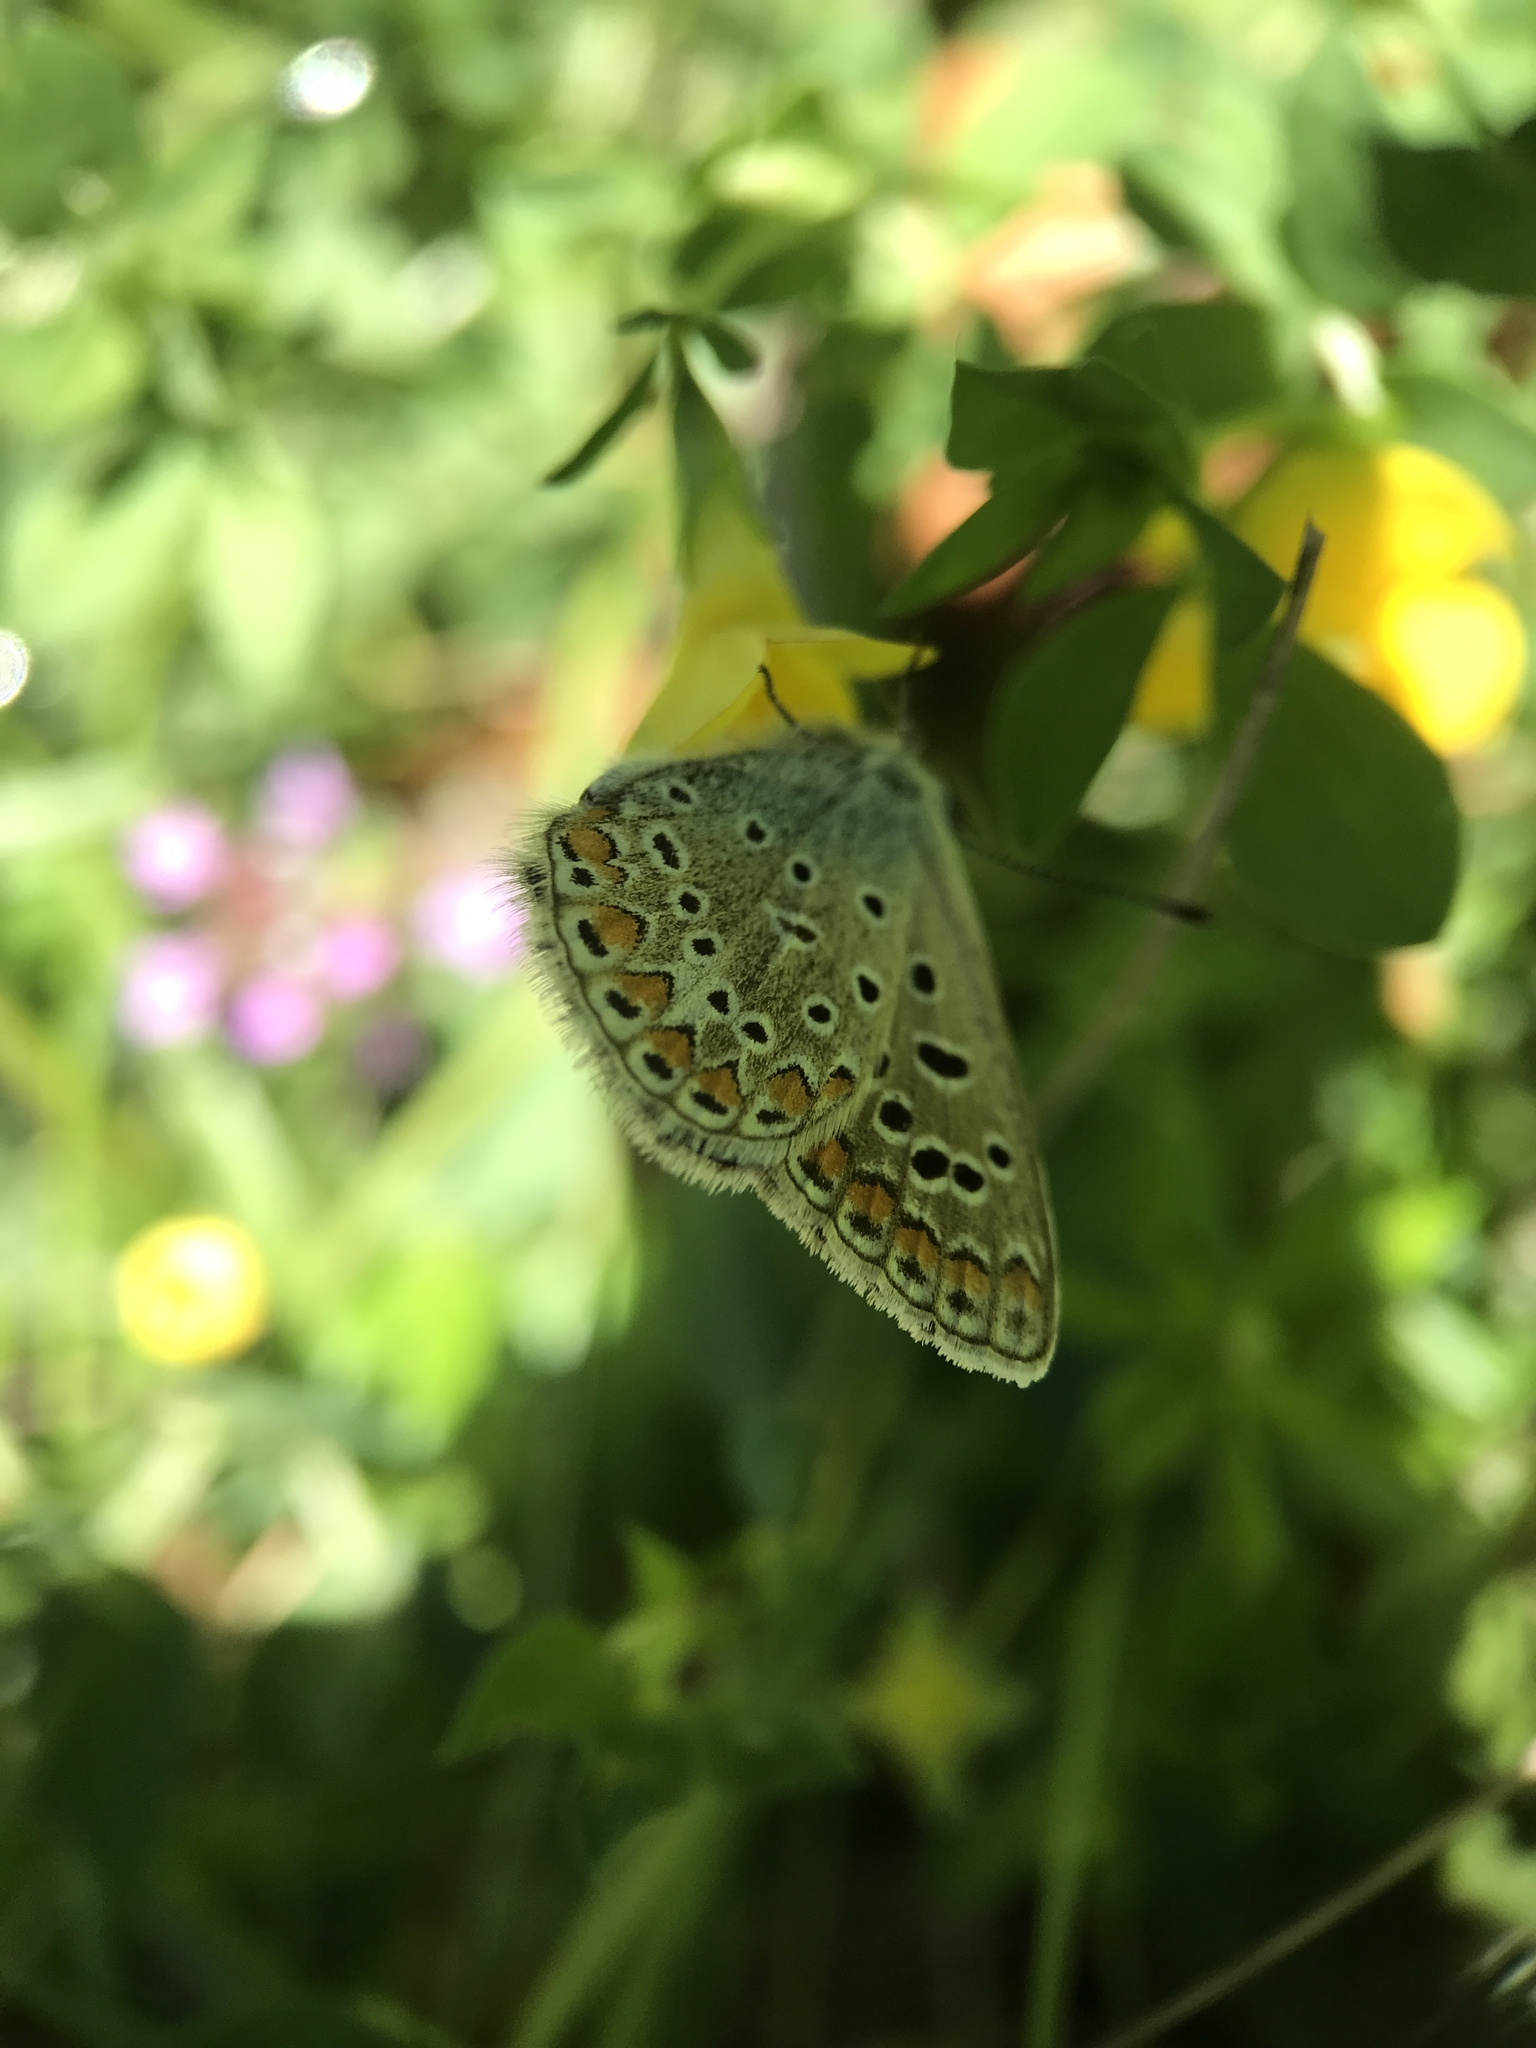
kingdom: Animalia
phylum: Arthropoda
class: Insecta
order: Lepidoptera
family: Lycaenidae
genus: Polyommatus
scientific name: Polyommatus icarus
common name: Common blue
